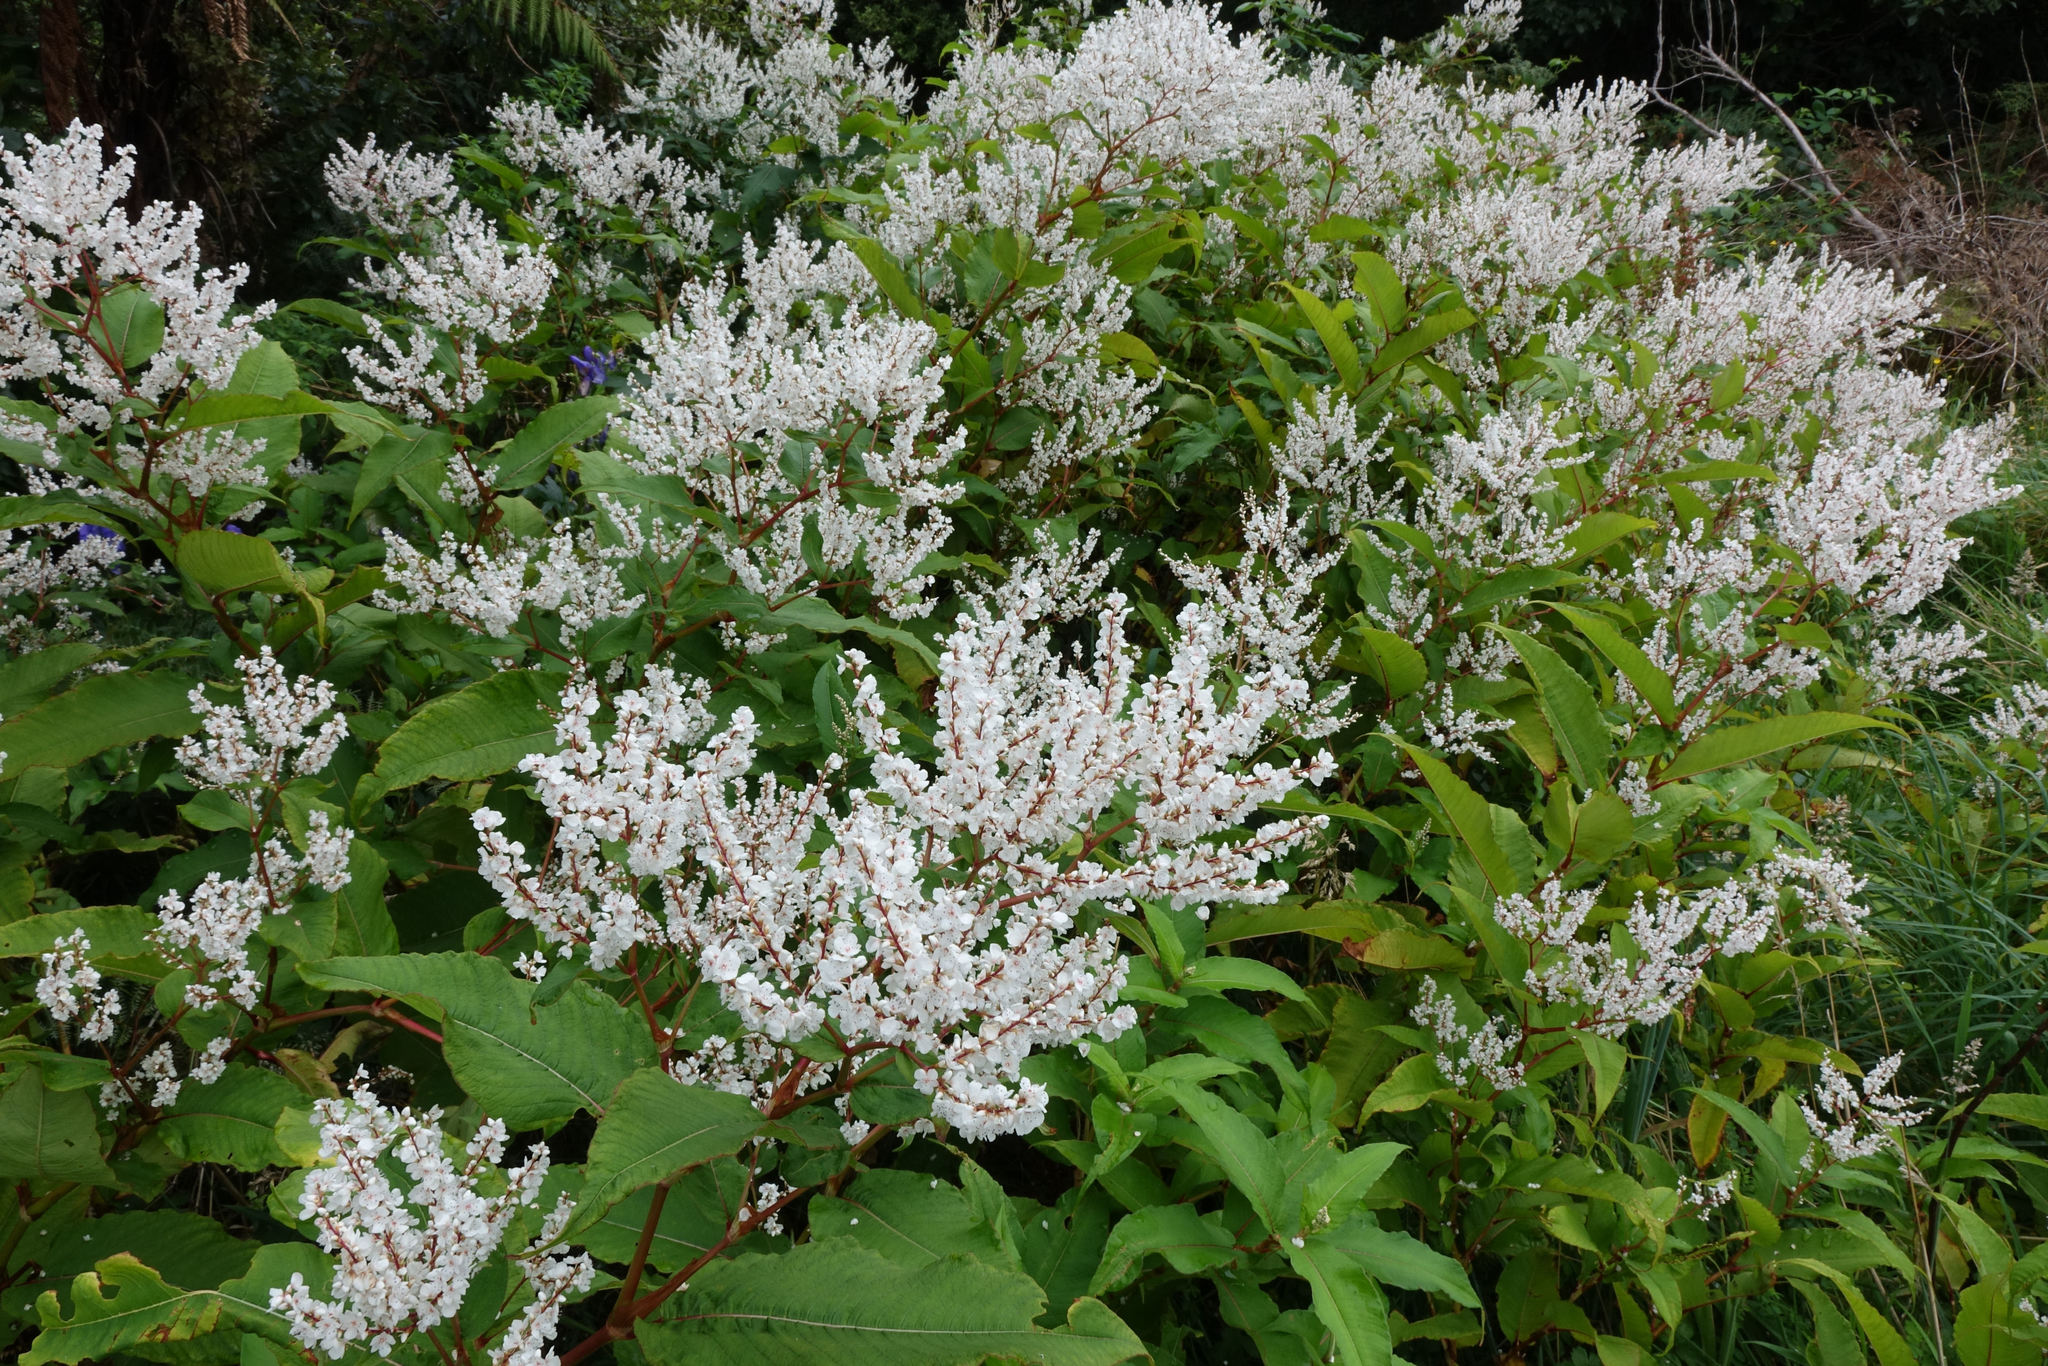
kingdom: Plantae
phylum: Tracheophyta
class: Magnoliopsida
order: Caryophyllales
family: Polygonaceae
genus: Koenigia
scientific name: Koenigia polystachya
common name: Himalayan knotweed
